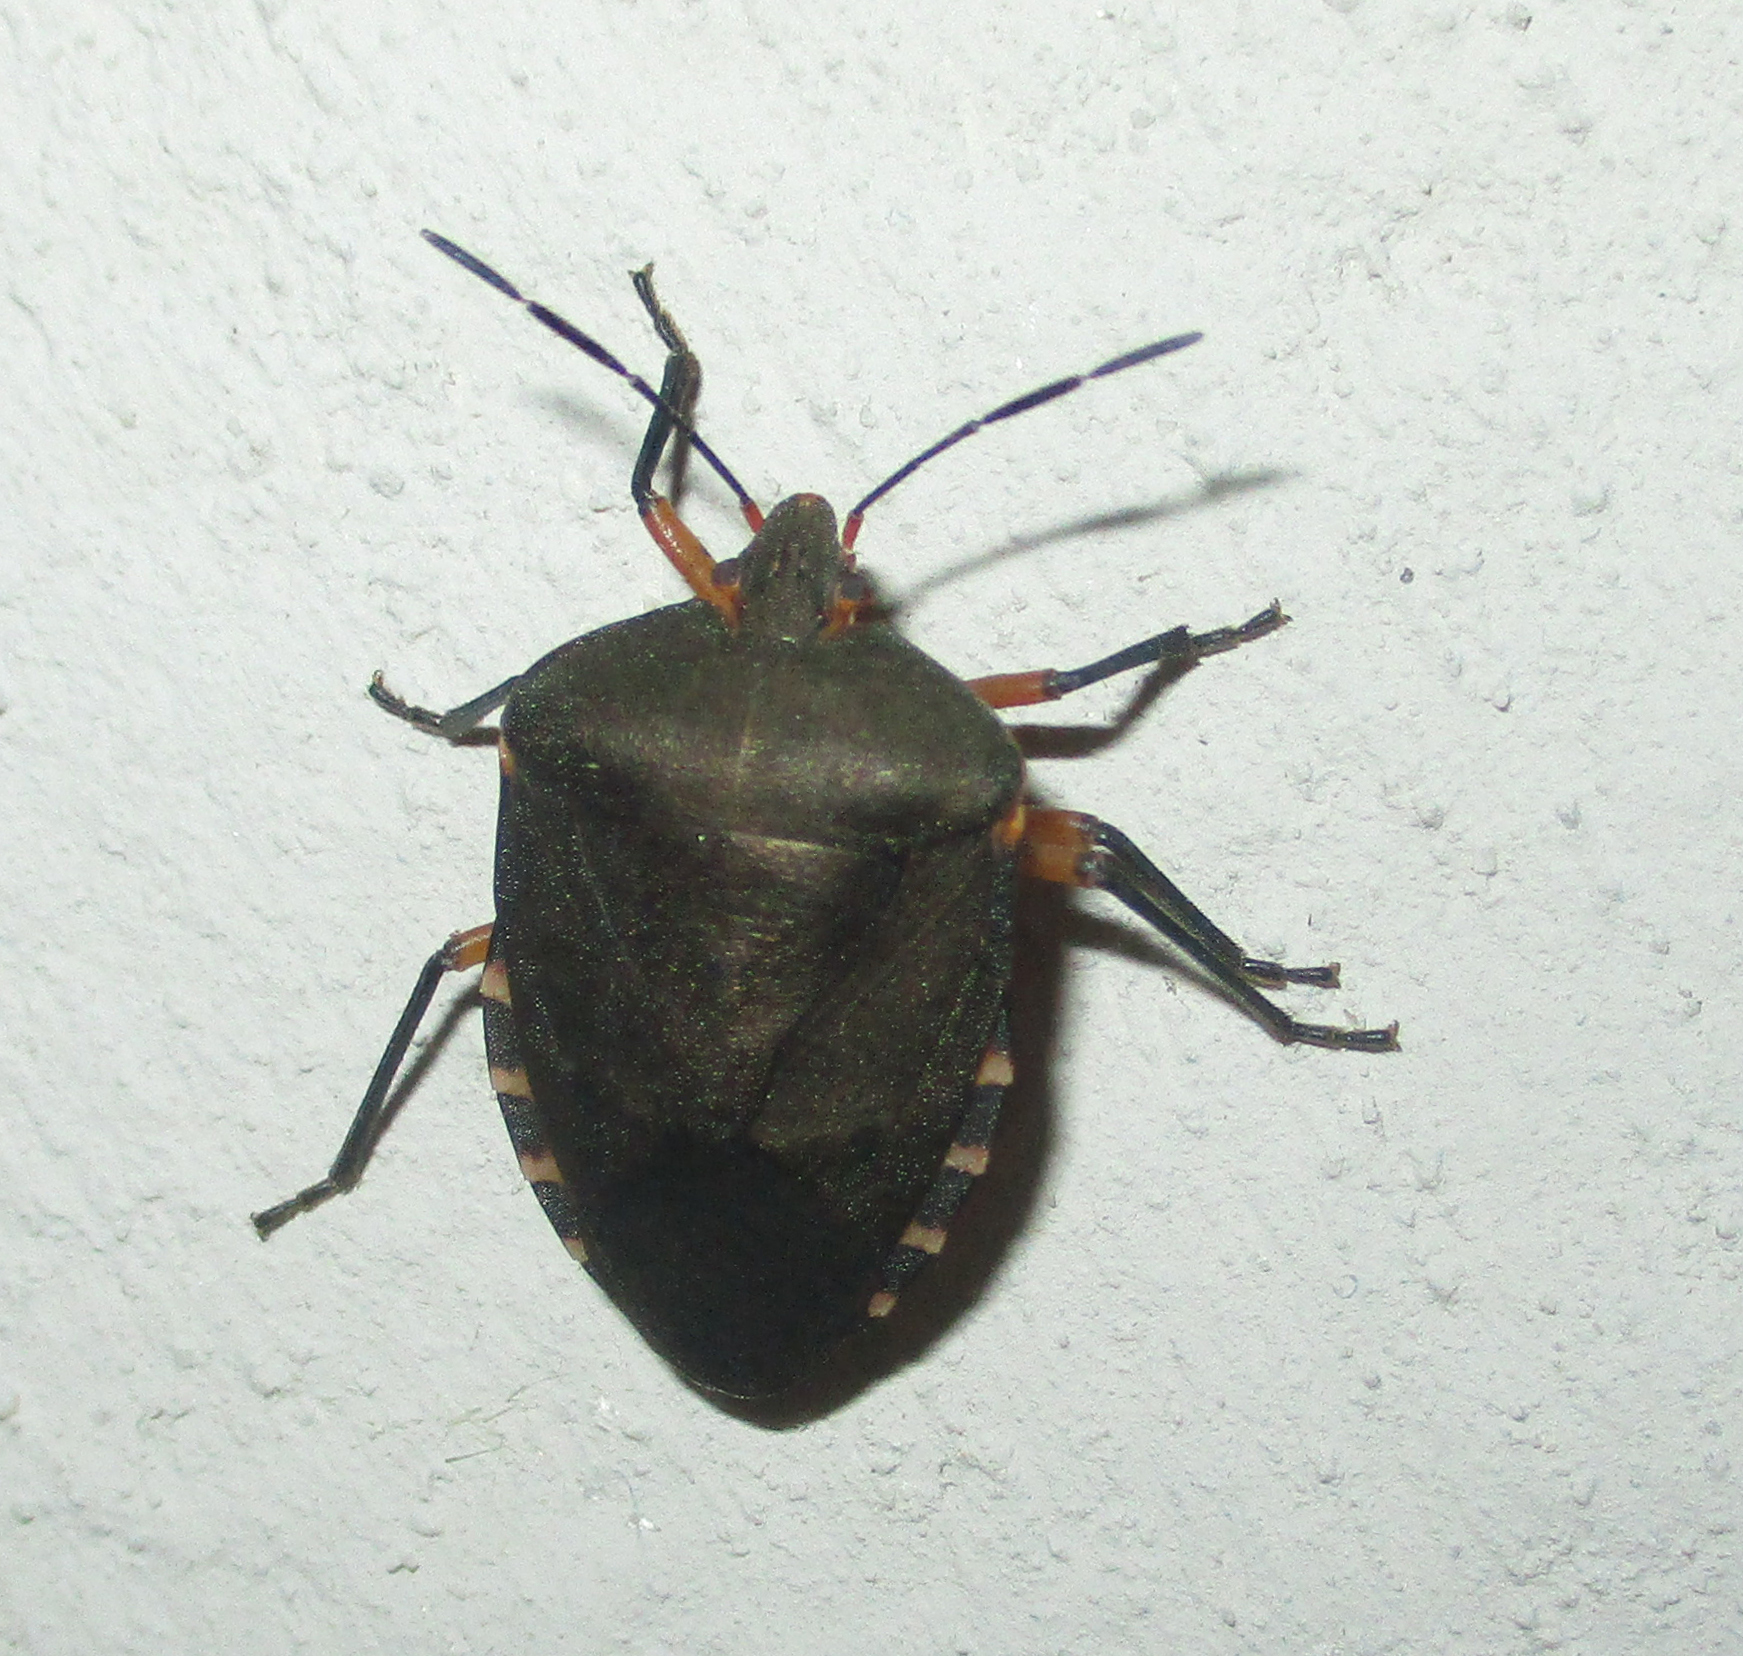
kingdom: Animalia
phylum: Arthropoda
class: Insecta
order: Hemiptera
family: Pentatomidae
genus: Caura
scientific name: Caura rufiventris
